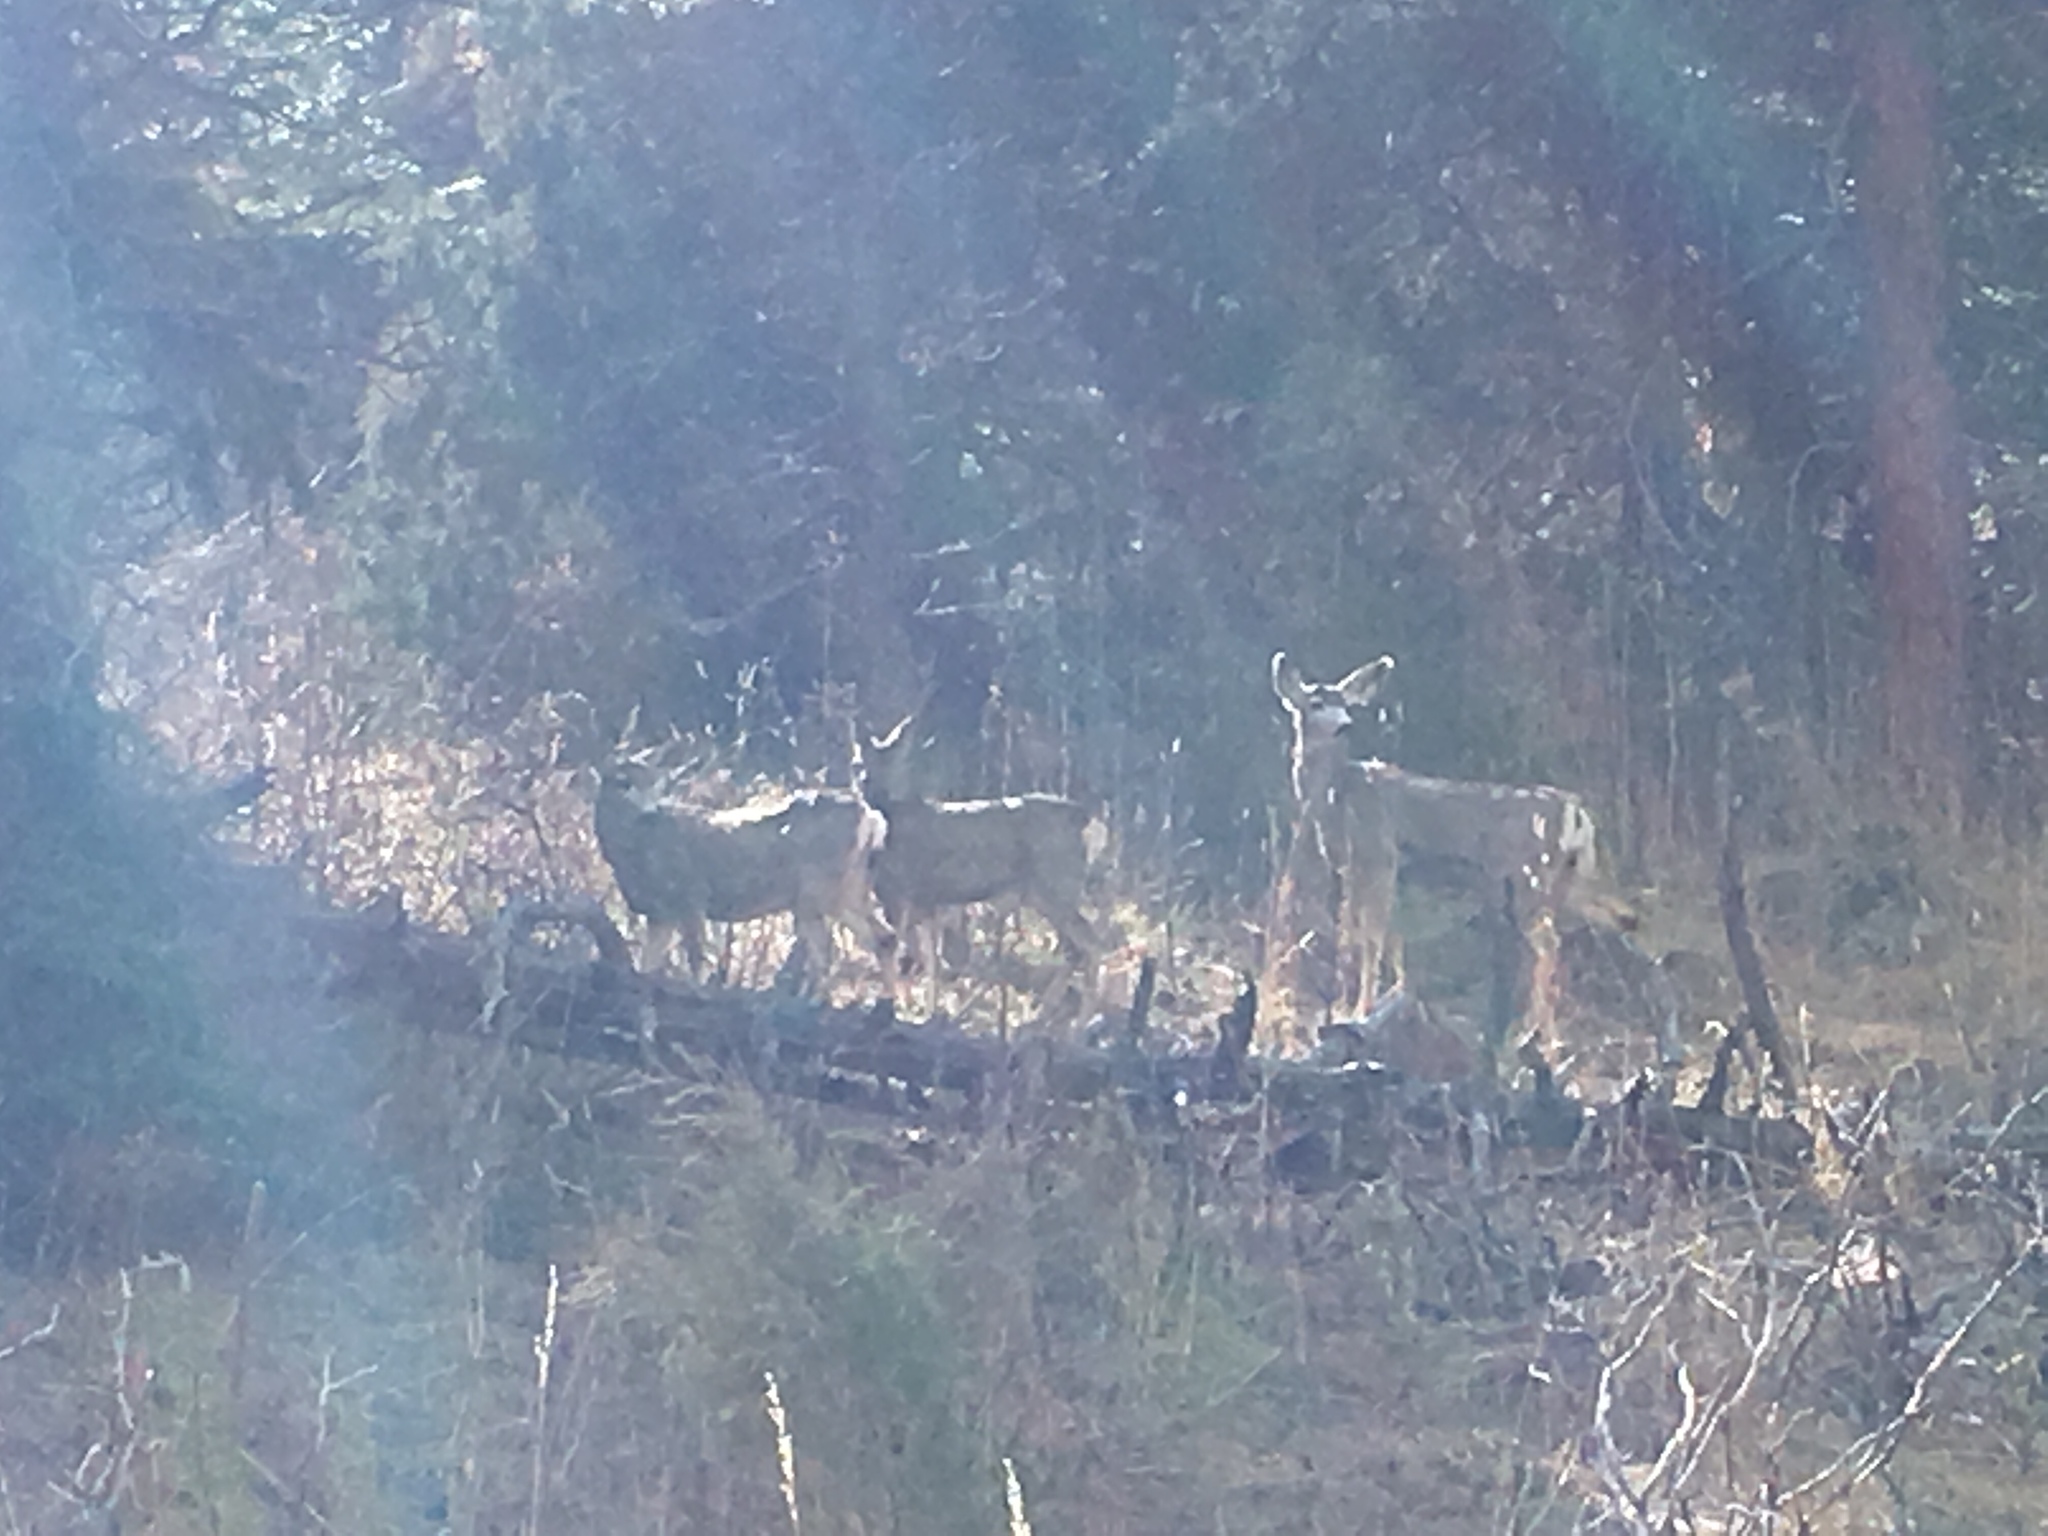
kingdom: Animalia
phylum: Chordata
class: Mammalia
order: Artiodactyla
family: Cervidae
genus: Odocoileus
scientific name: Odocoileus hemionus
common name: Mule deer
